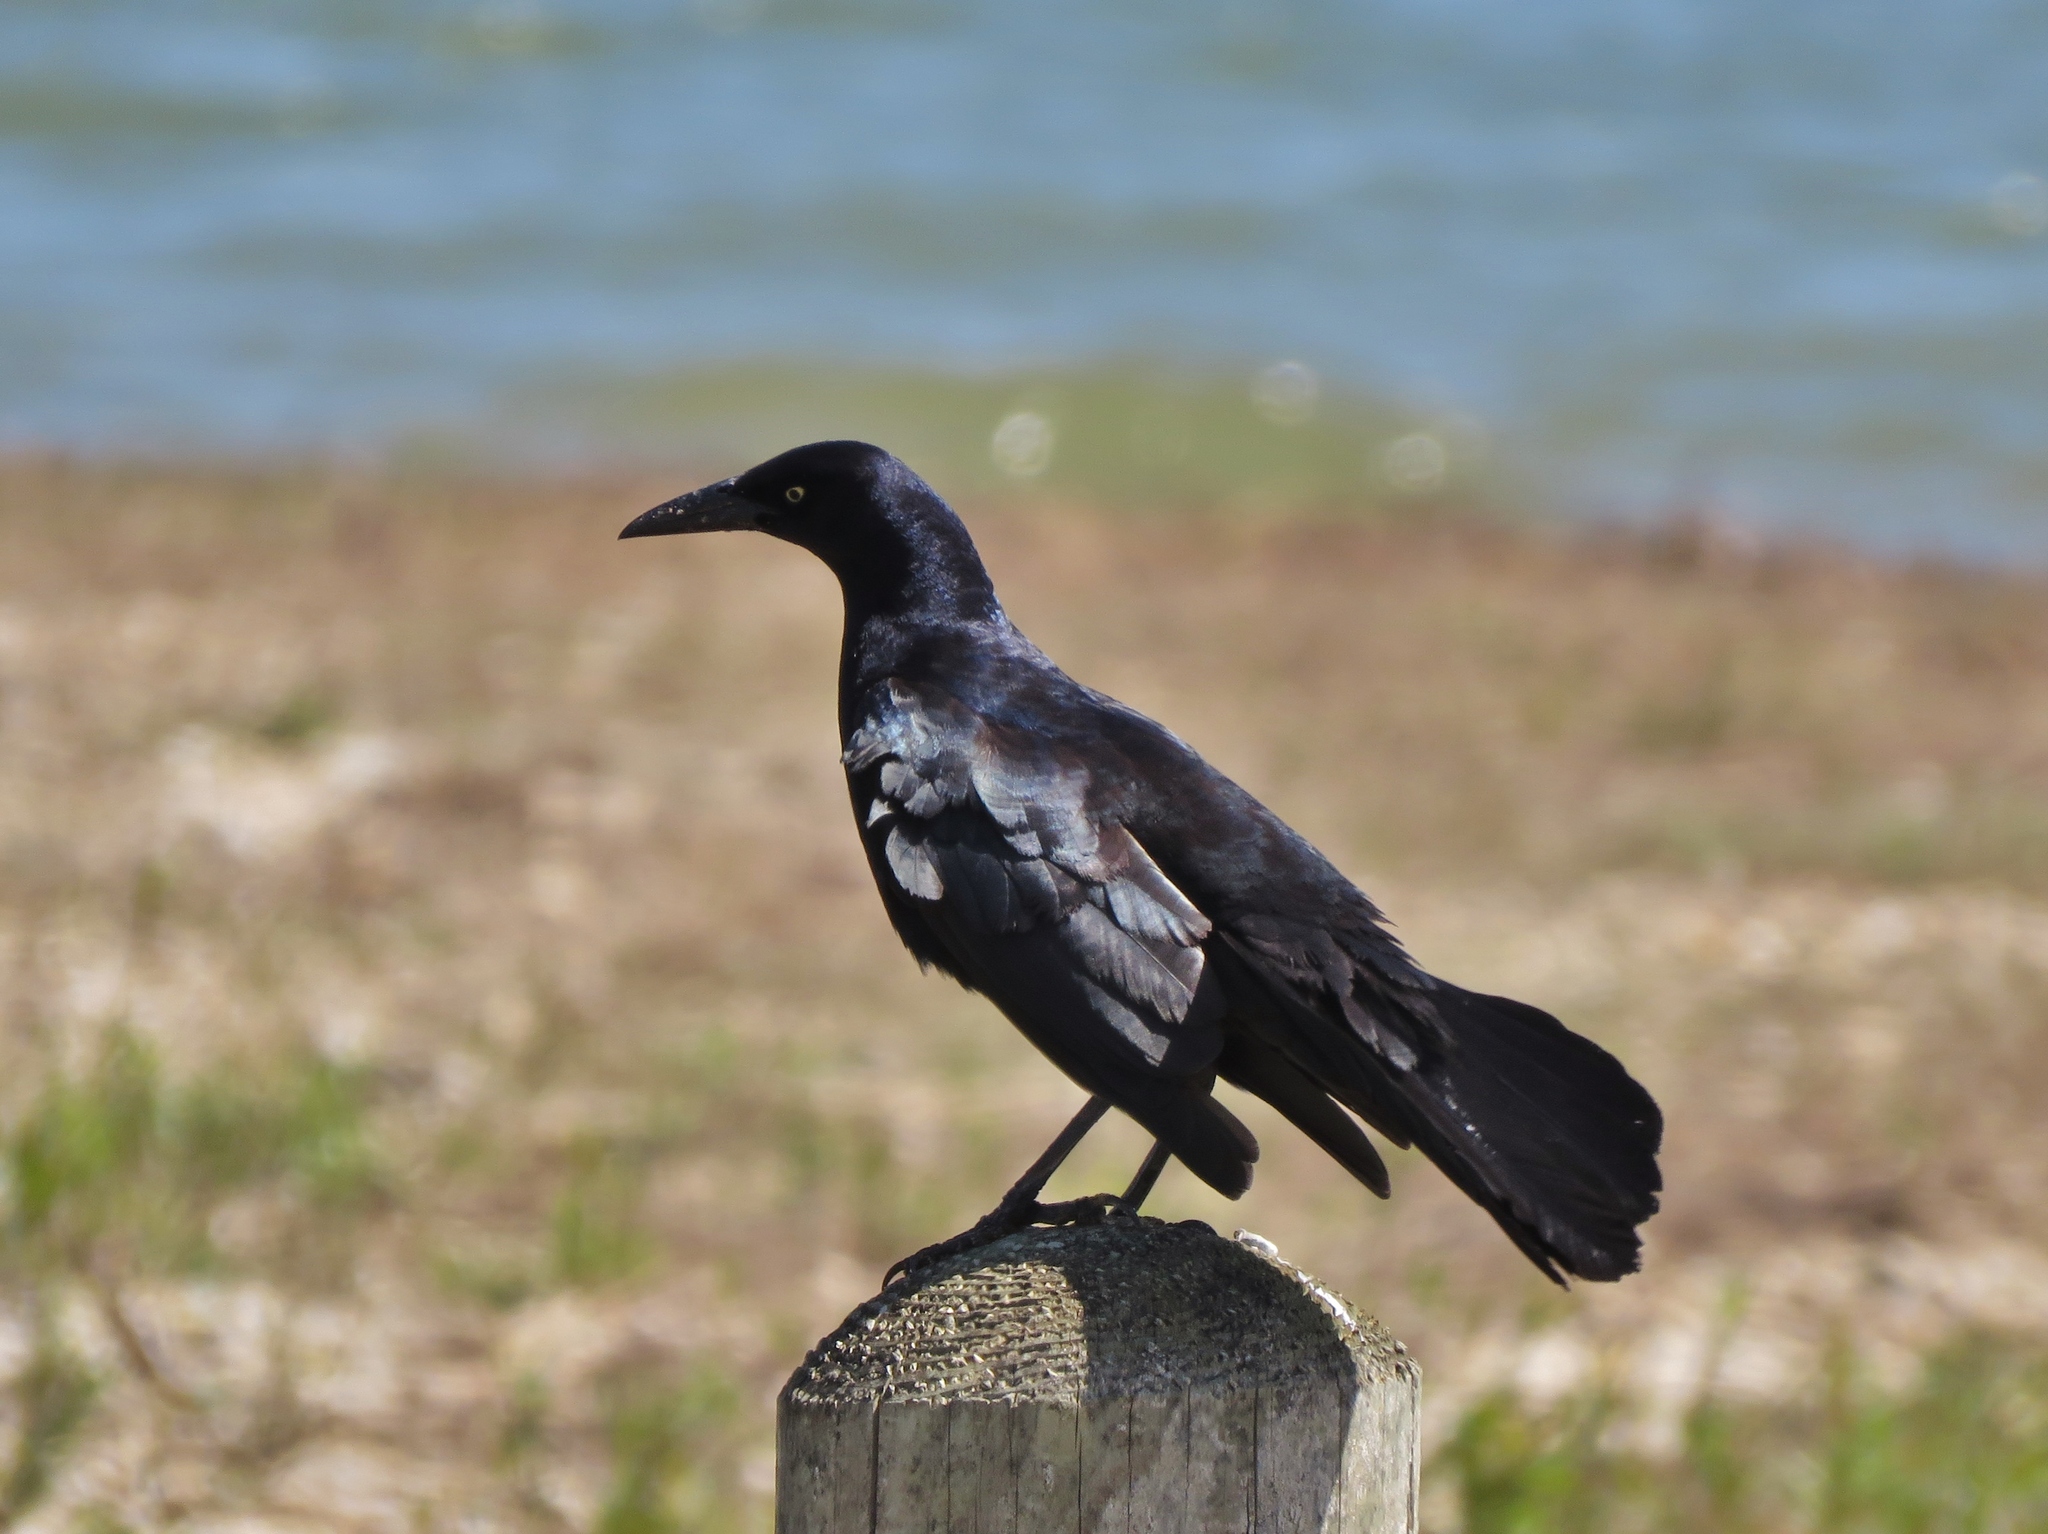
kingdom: Animalia
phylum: Chordata
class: Aves
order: Passeriformes
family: Icteridae
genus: Quiscalus
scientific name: Quiscalus mexicanus
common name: Great-tailed grackle
